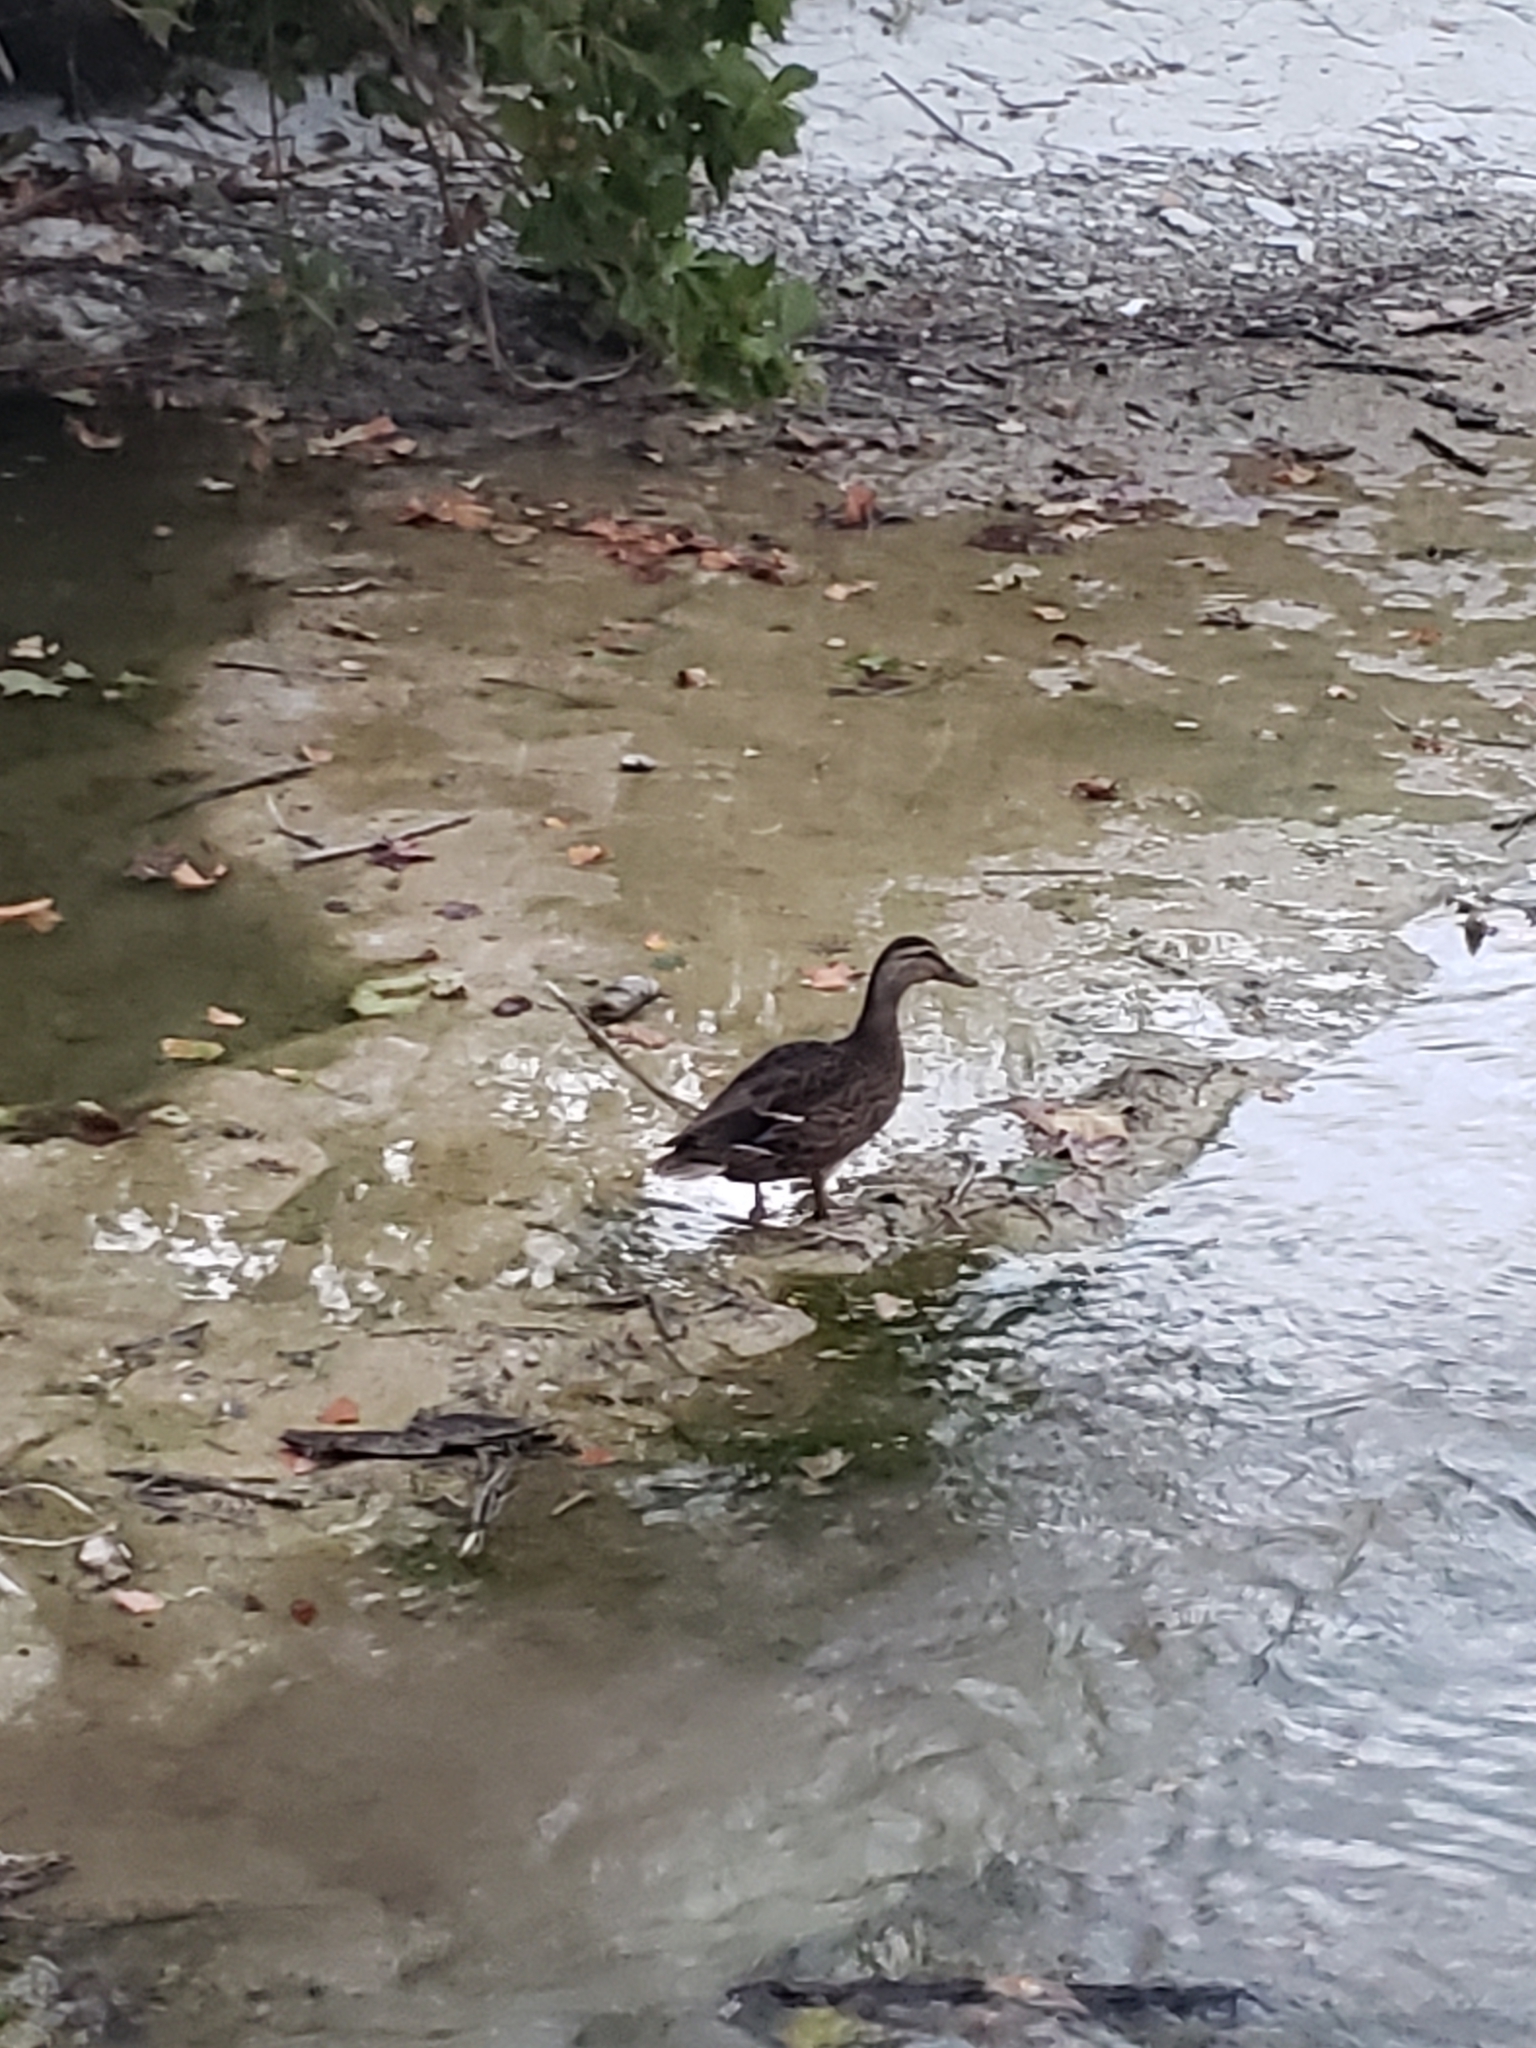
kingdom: Animalia
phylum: Chordata
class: Aves
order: Anseriformes
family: Anatidae
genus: Anas
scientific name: Anas platyrhynchos
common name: Mallard
